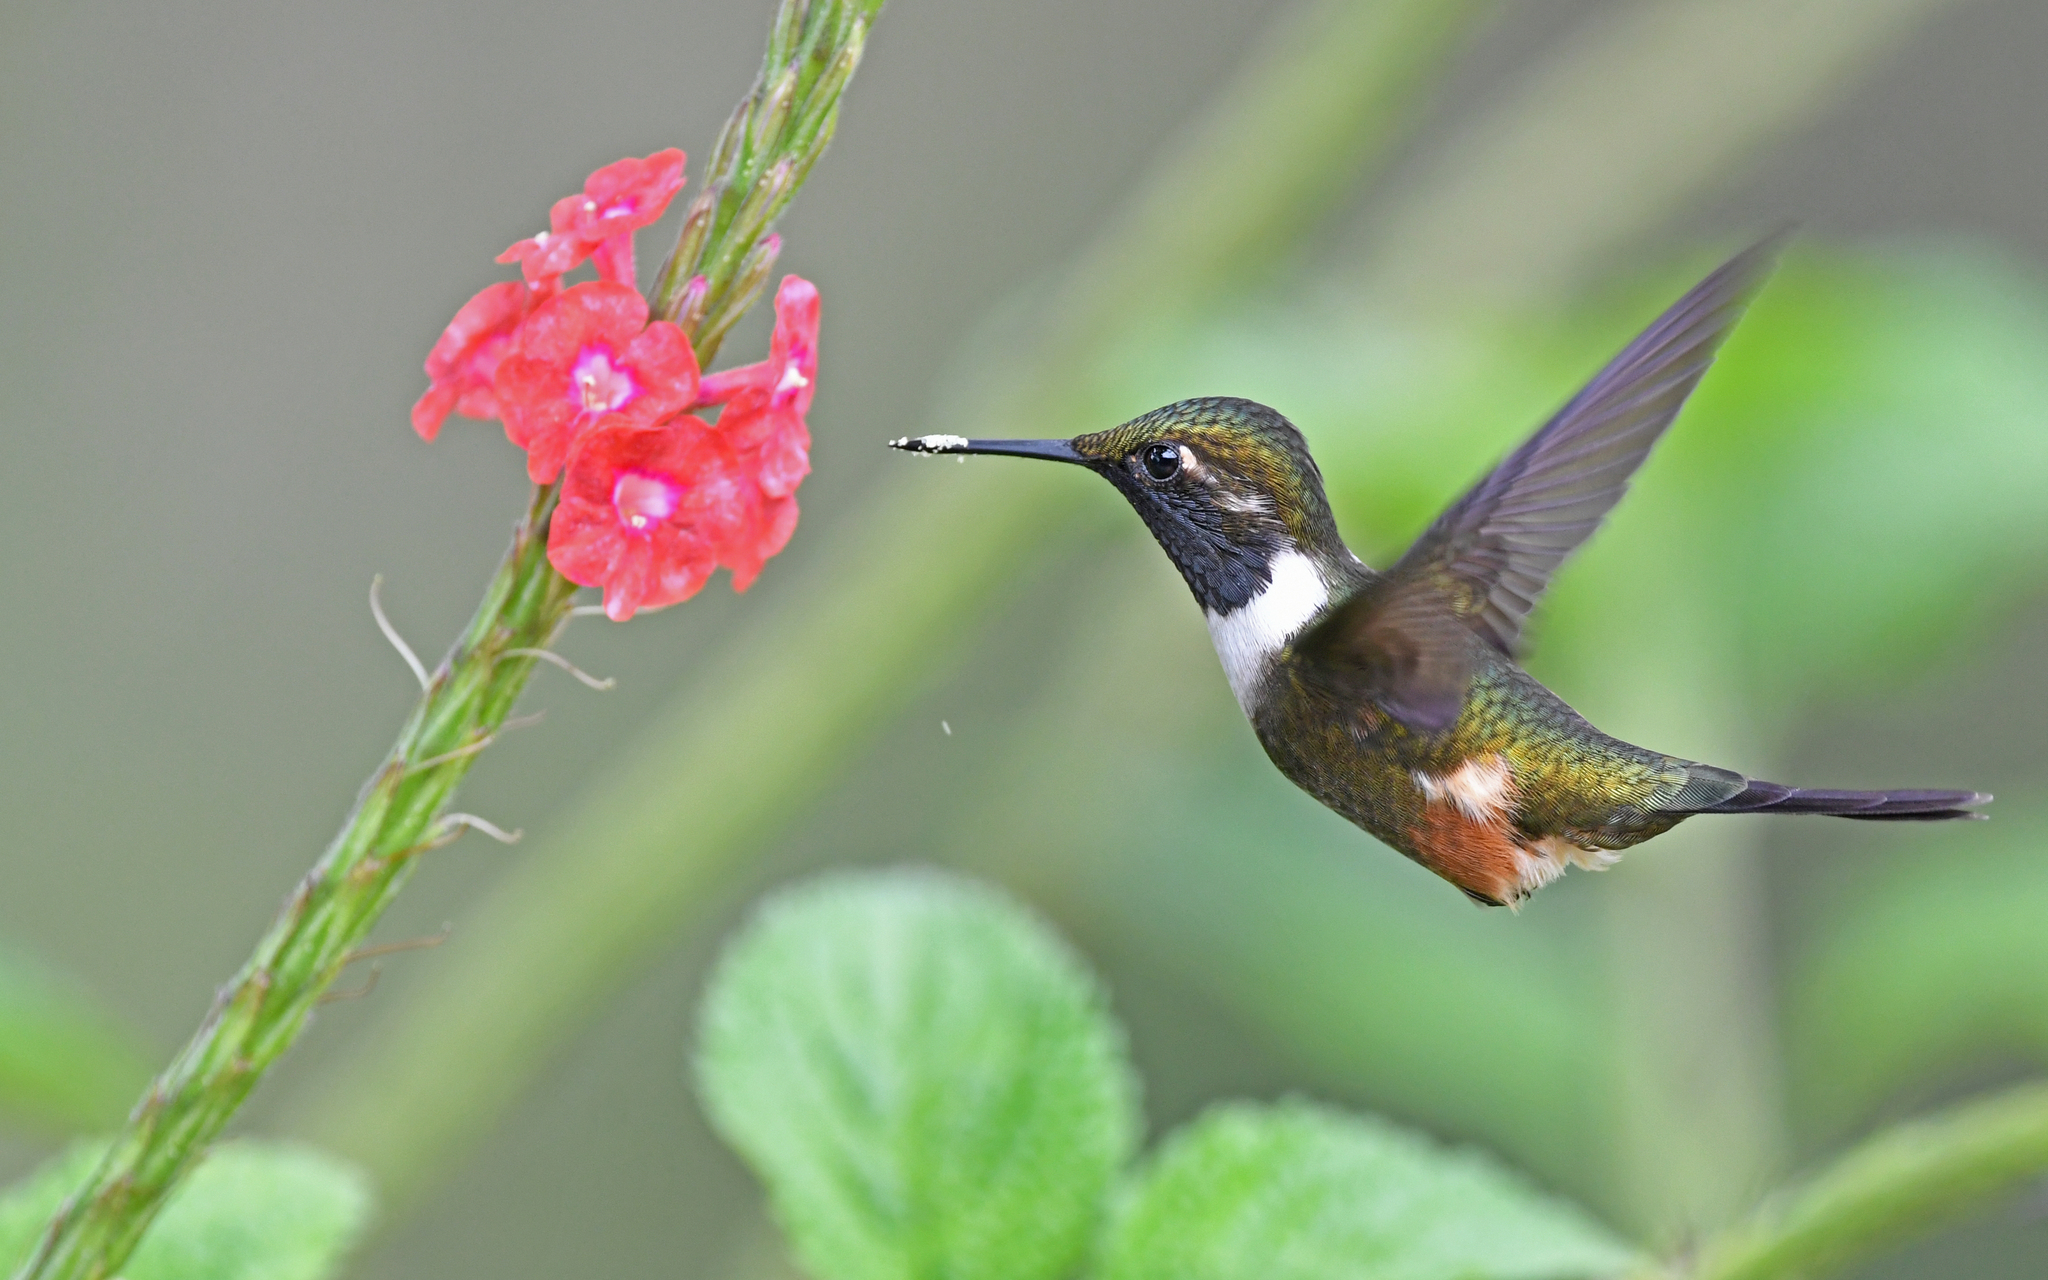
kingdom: Animalia
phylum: Chordata
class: Aves
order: Apodiformes
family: Trochilidae
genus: Calliphlox
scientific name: Calliphlox mitchellii
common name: Purple-throated woodstar
